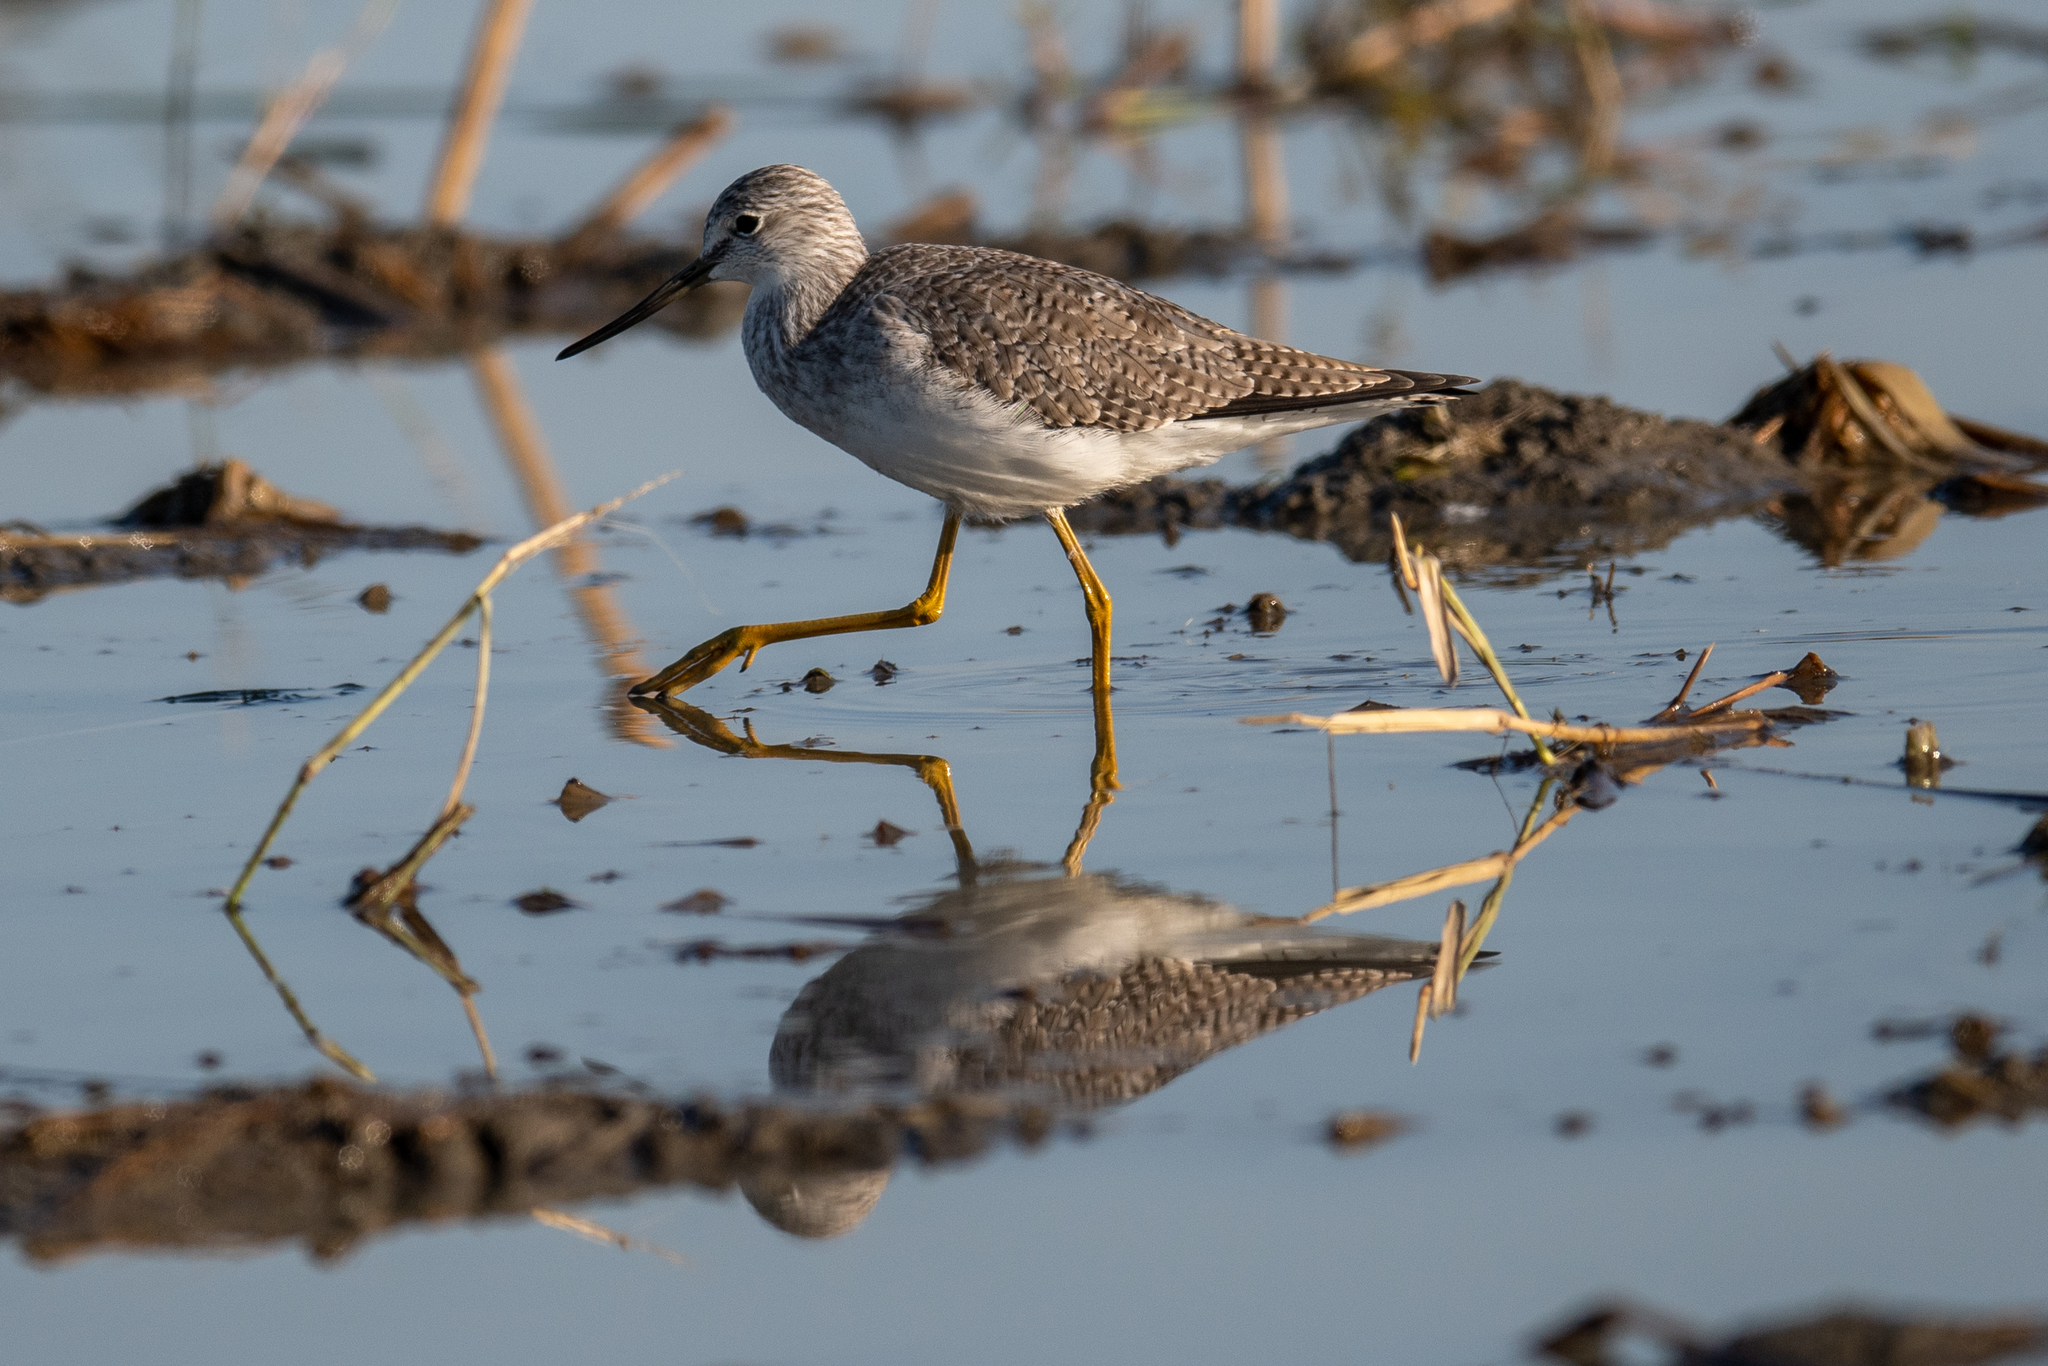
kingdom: Animalia
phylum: Chordata
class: Aves
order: Charadriiformes
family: Scolopacidae
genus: Tringa
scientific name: Tringa melanoleuca
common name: Greater yellowlegs
